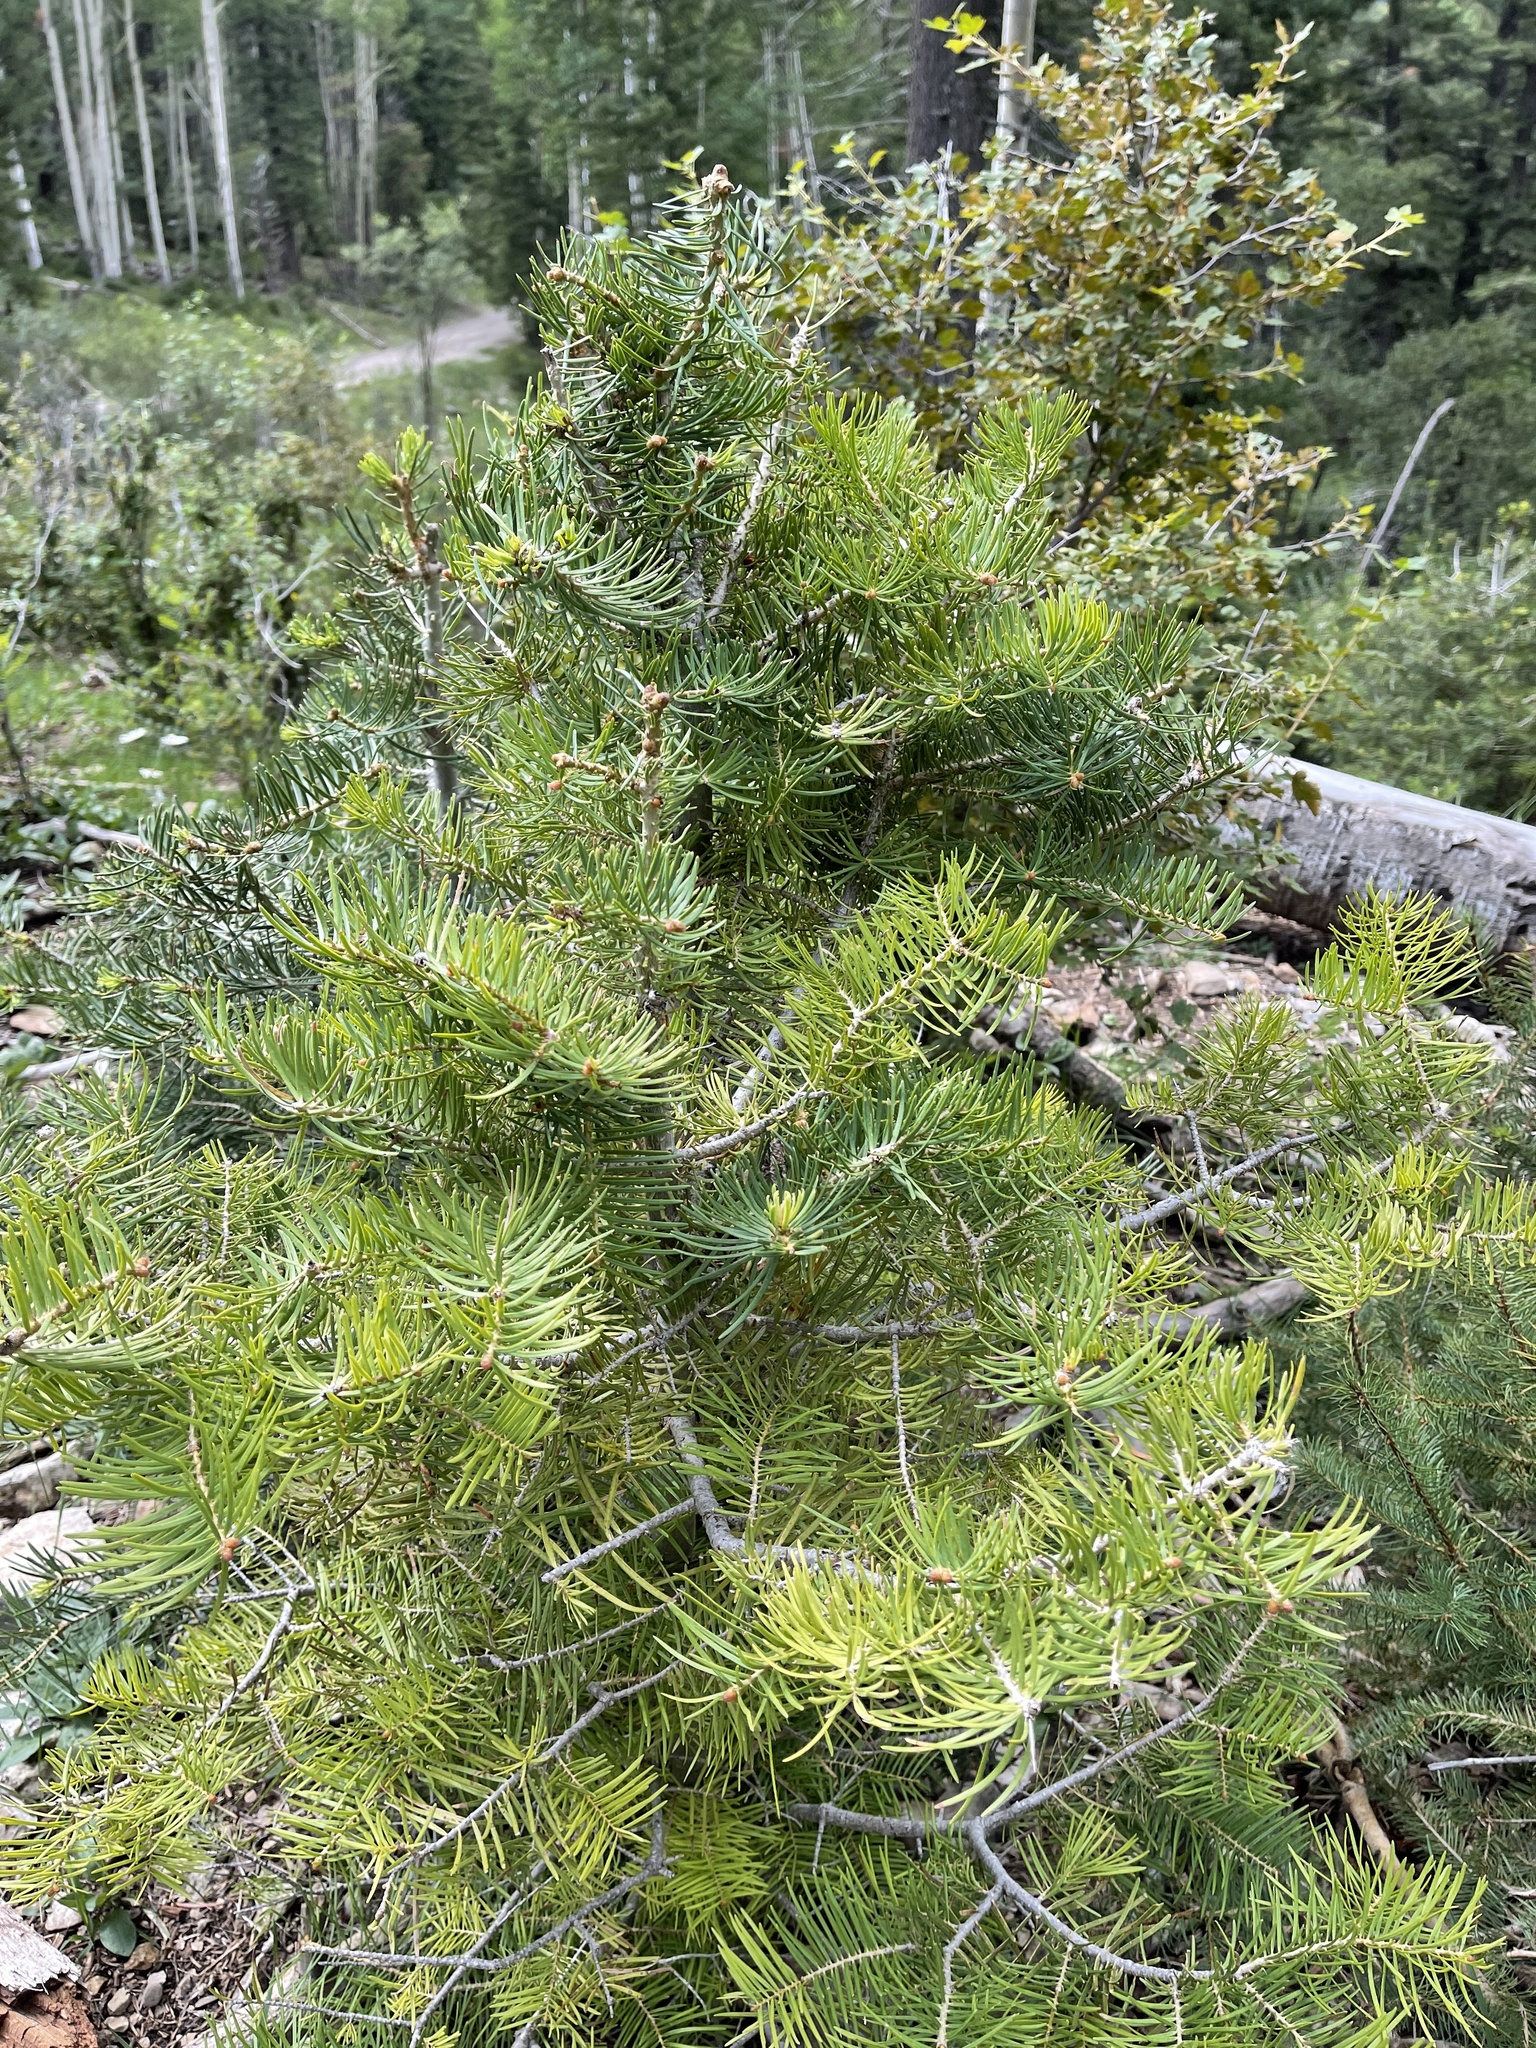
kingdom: Plantae
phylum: Tracheophyta
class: Pinopsida
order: Pinales
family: Pinaceae
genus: Abies
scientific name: Abies concolor
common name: Colorado fir
